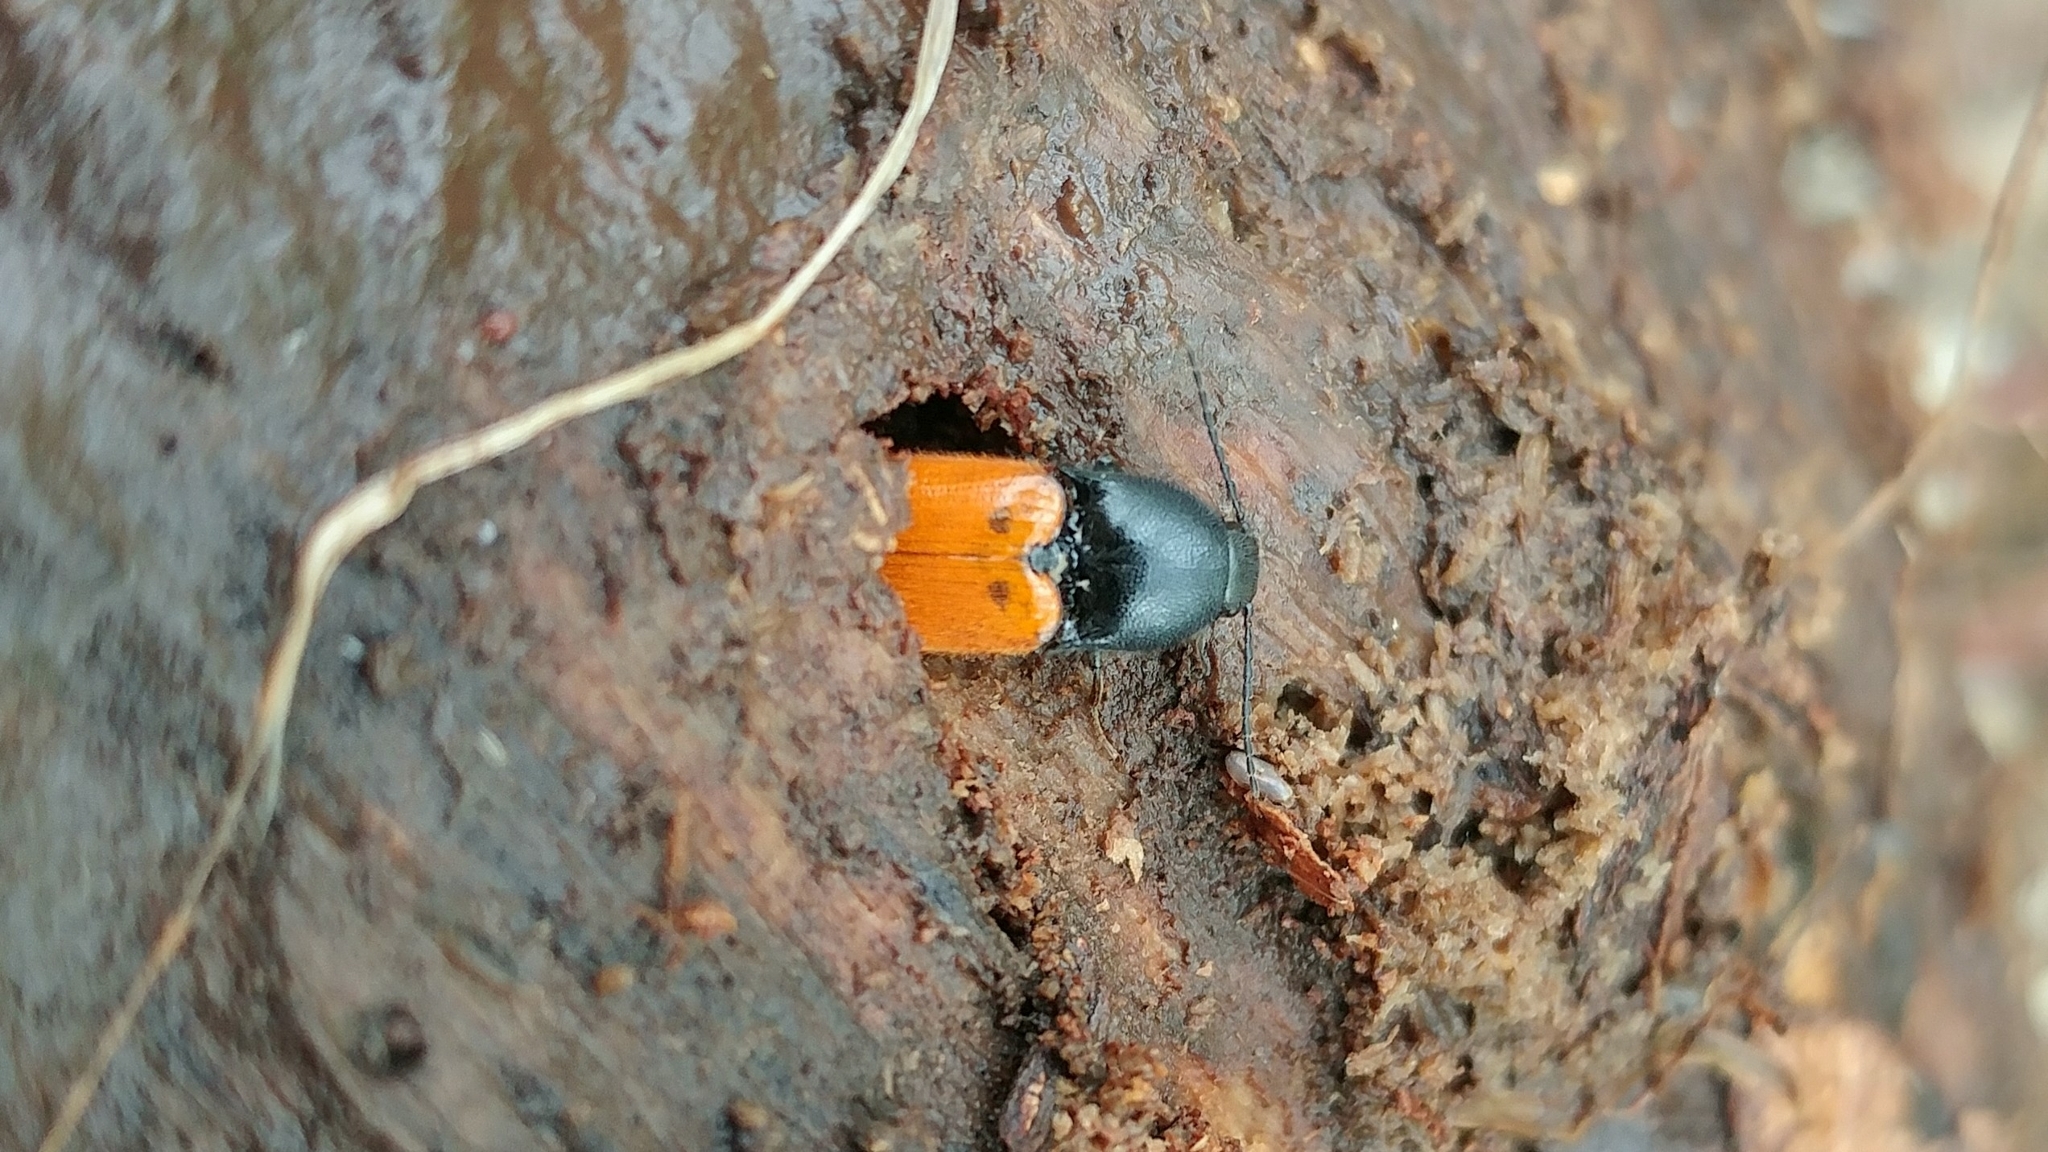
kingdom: Animalia
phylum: Arthropoda
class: Insecta
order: Coleoptera
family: Elateridae
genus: Ampedus
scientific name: Ampedus
